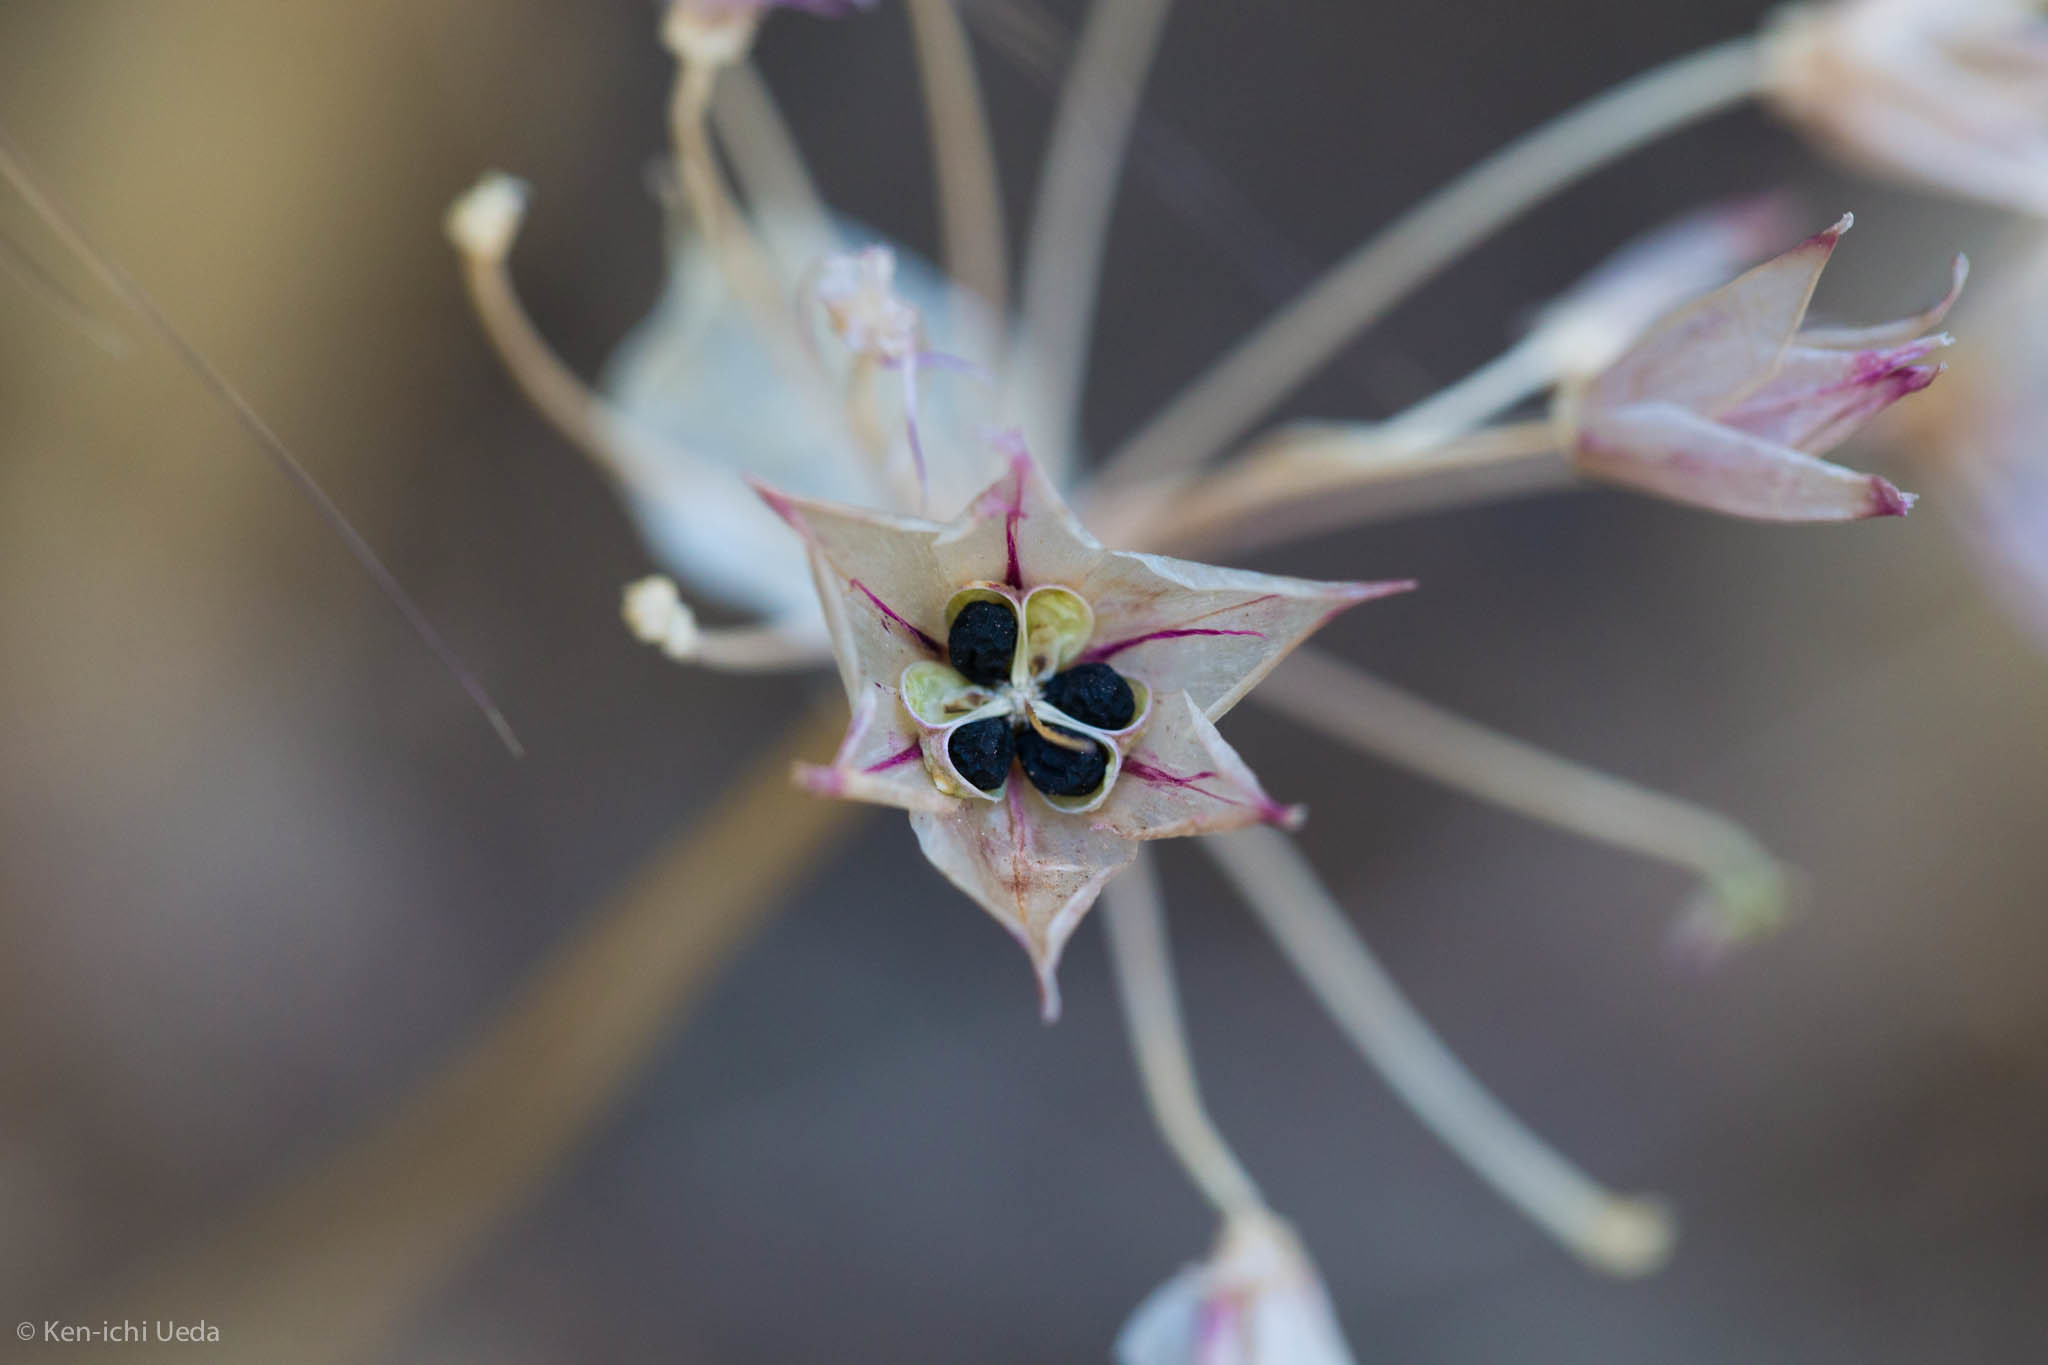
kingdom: Plantae
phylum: Tracheophyta
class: Liliopsida
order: Asparagales
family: Amaryllidaceae
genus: Allium
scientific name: Allium unifolium
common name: American garlic
